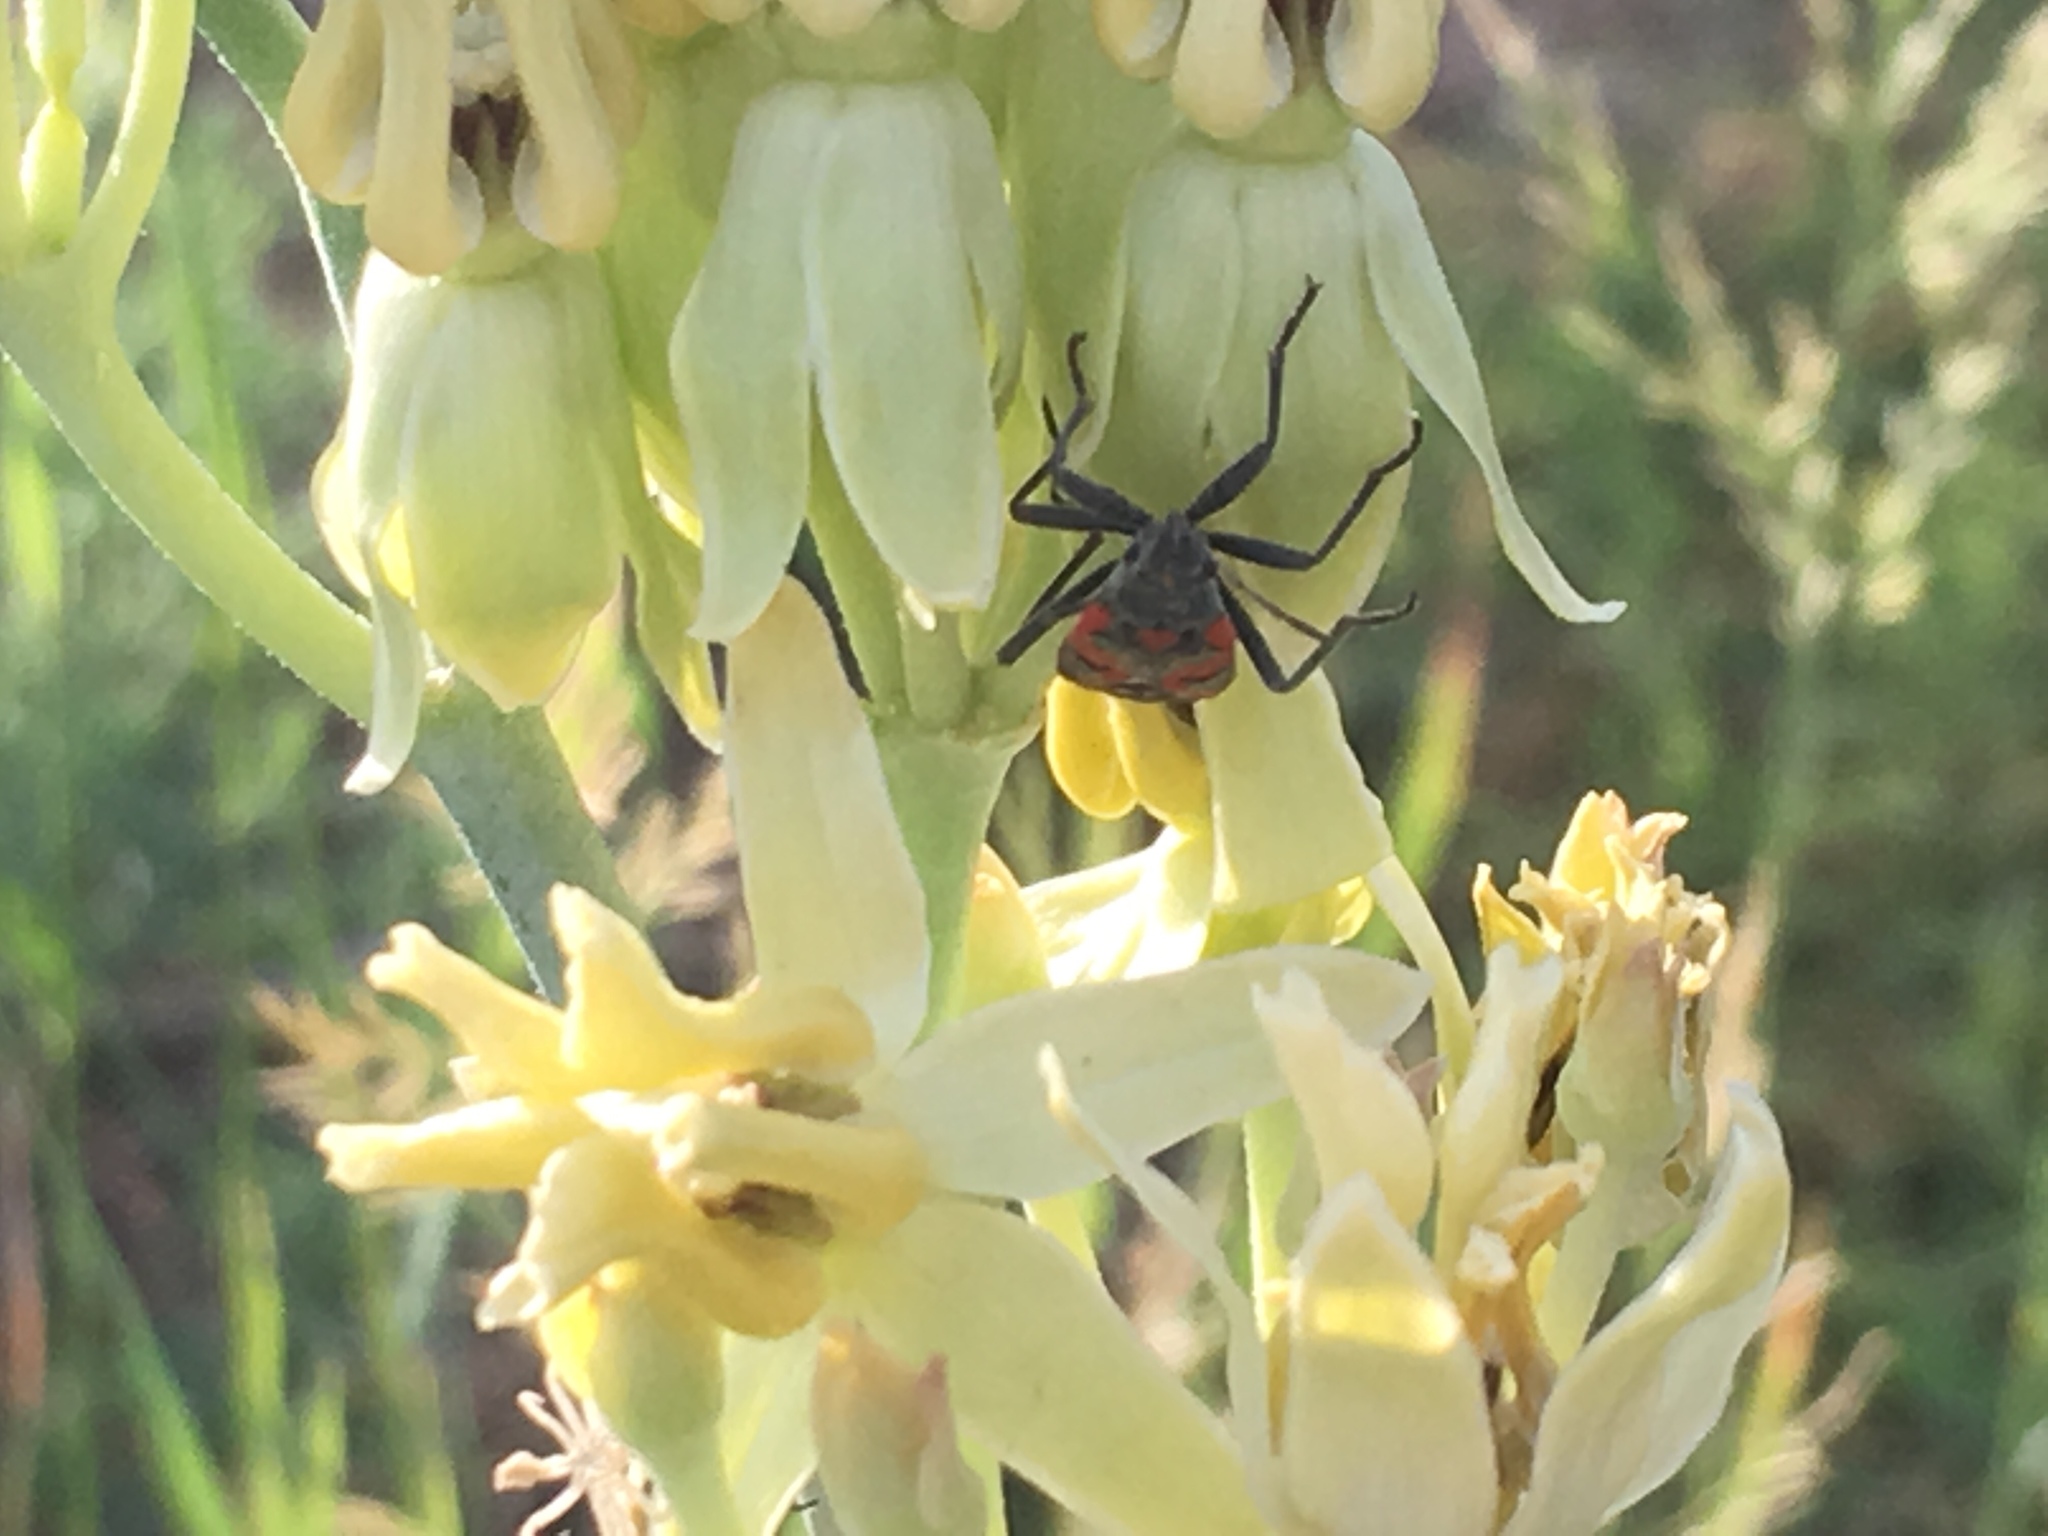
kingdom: Animalia
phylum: Arthropoda
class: Insecta
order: Hemiptera
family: Lygaeidae
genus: Lygaeus
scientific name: Lygaeus kalmii
